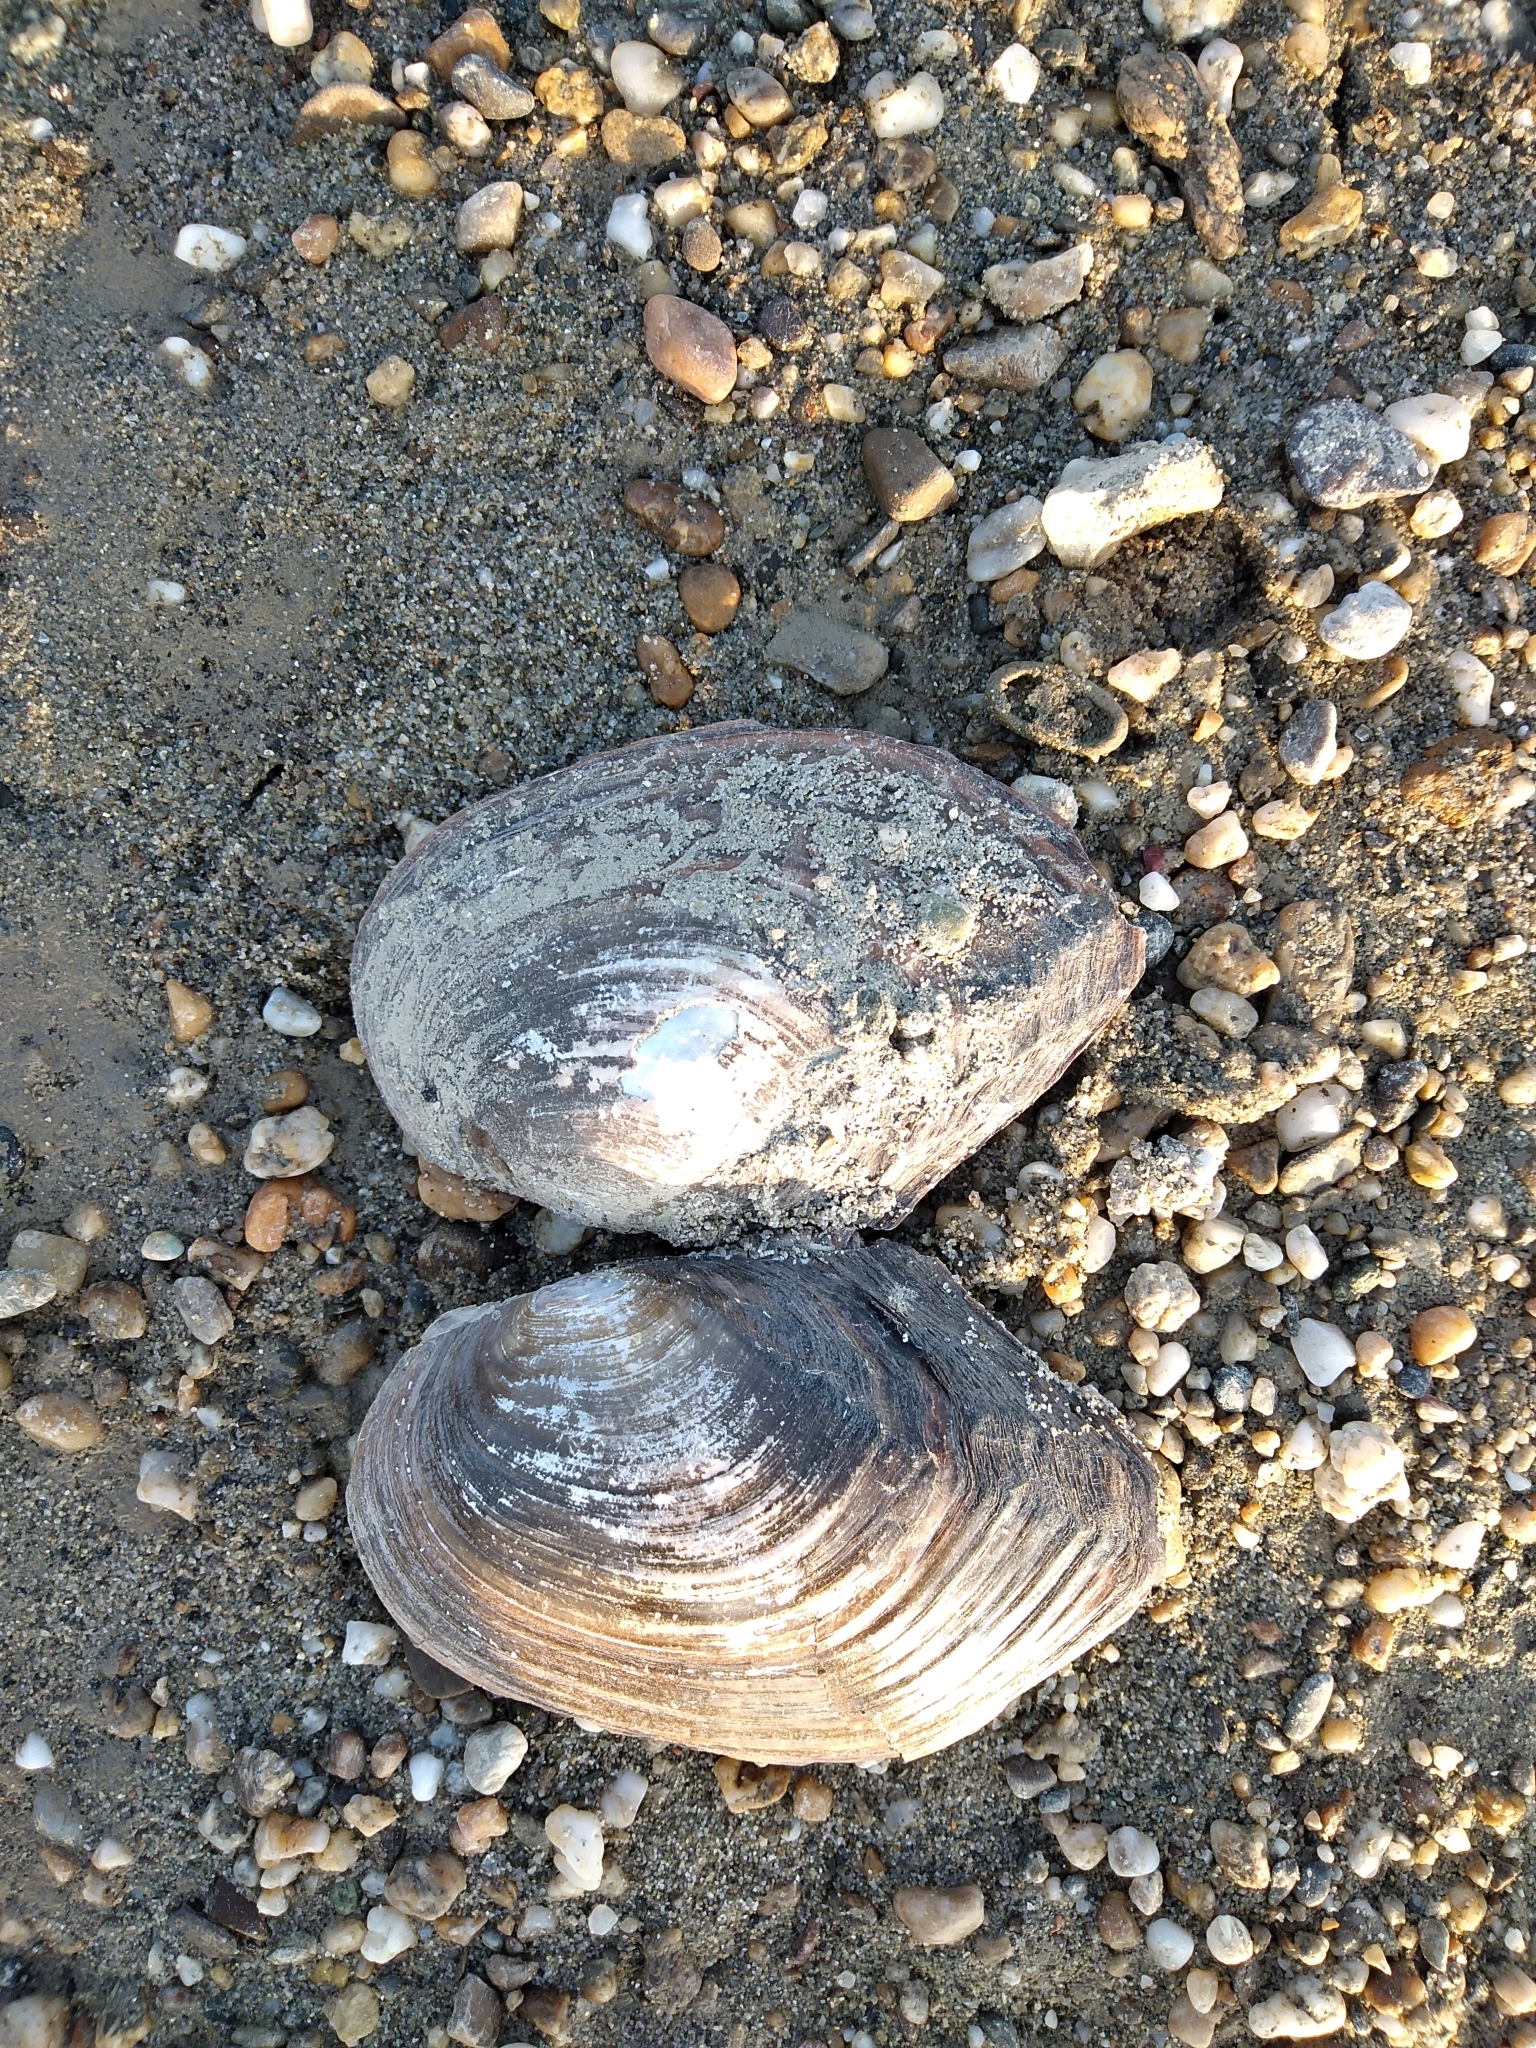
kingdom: Animalia
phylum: Mollusca
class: Bivalvia
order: Unionida
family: Unionidae
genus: Sinanodonta
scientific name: Sinanodonta woodiana
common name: Chinese pond mussel
